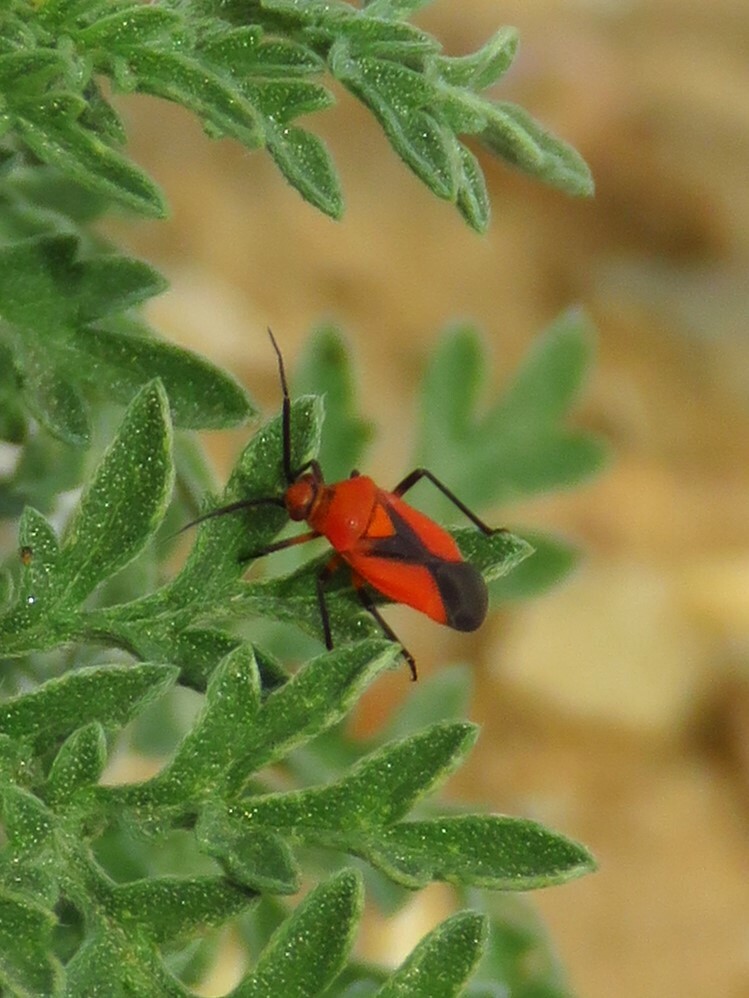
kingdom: Animalia
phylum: Arthropoda
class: Insecta
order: Hemiptera
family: Miridae
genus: Oncerometopus
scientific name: Oncerometopus nigriclavus
